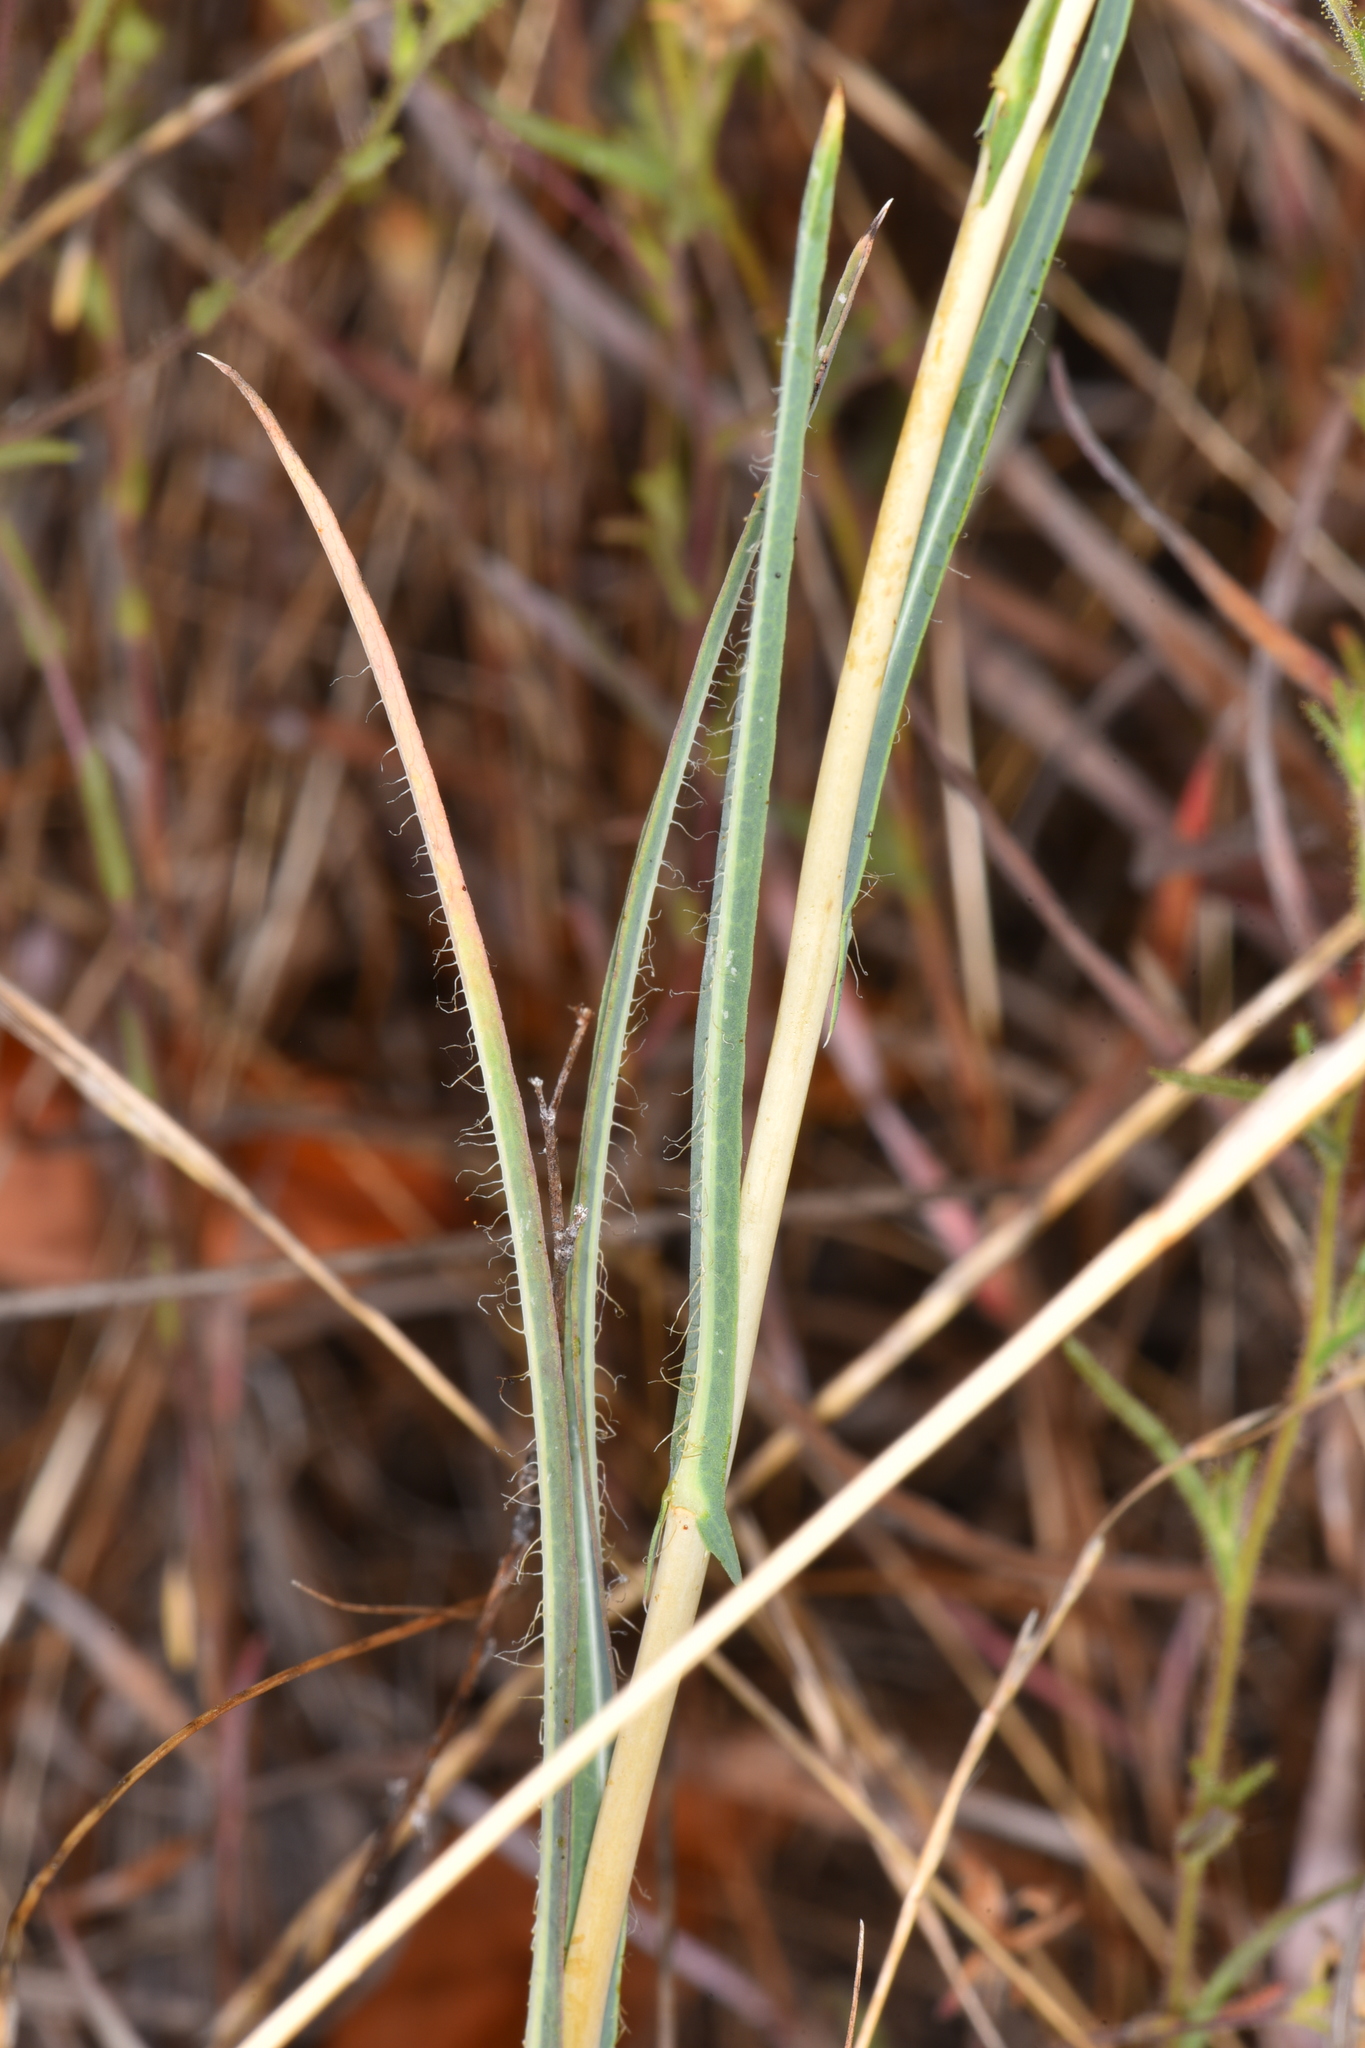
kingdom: Plantae
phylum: Tracheophyta
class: Magnoliopsida
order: Asterales
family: Asteraceae
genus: Lactuca
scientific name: Lactuca saligna
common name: Wild lettuce
